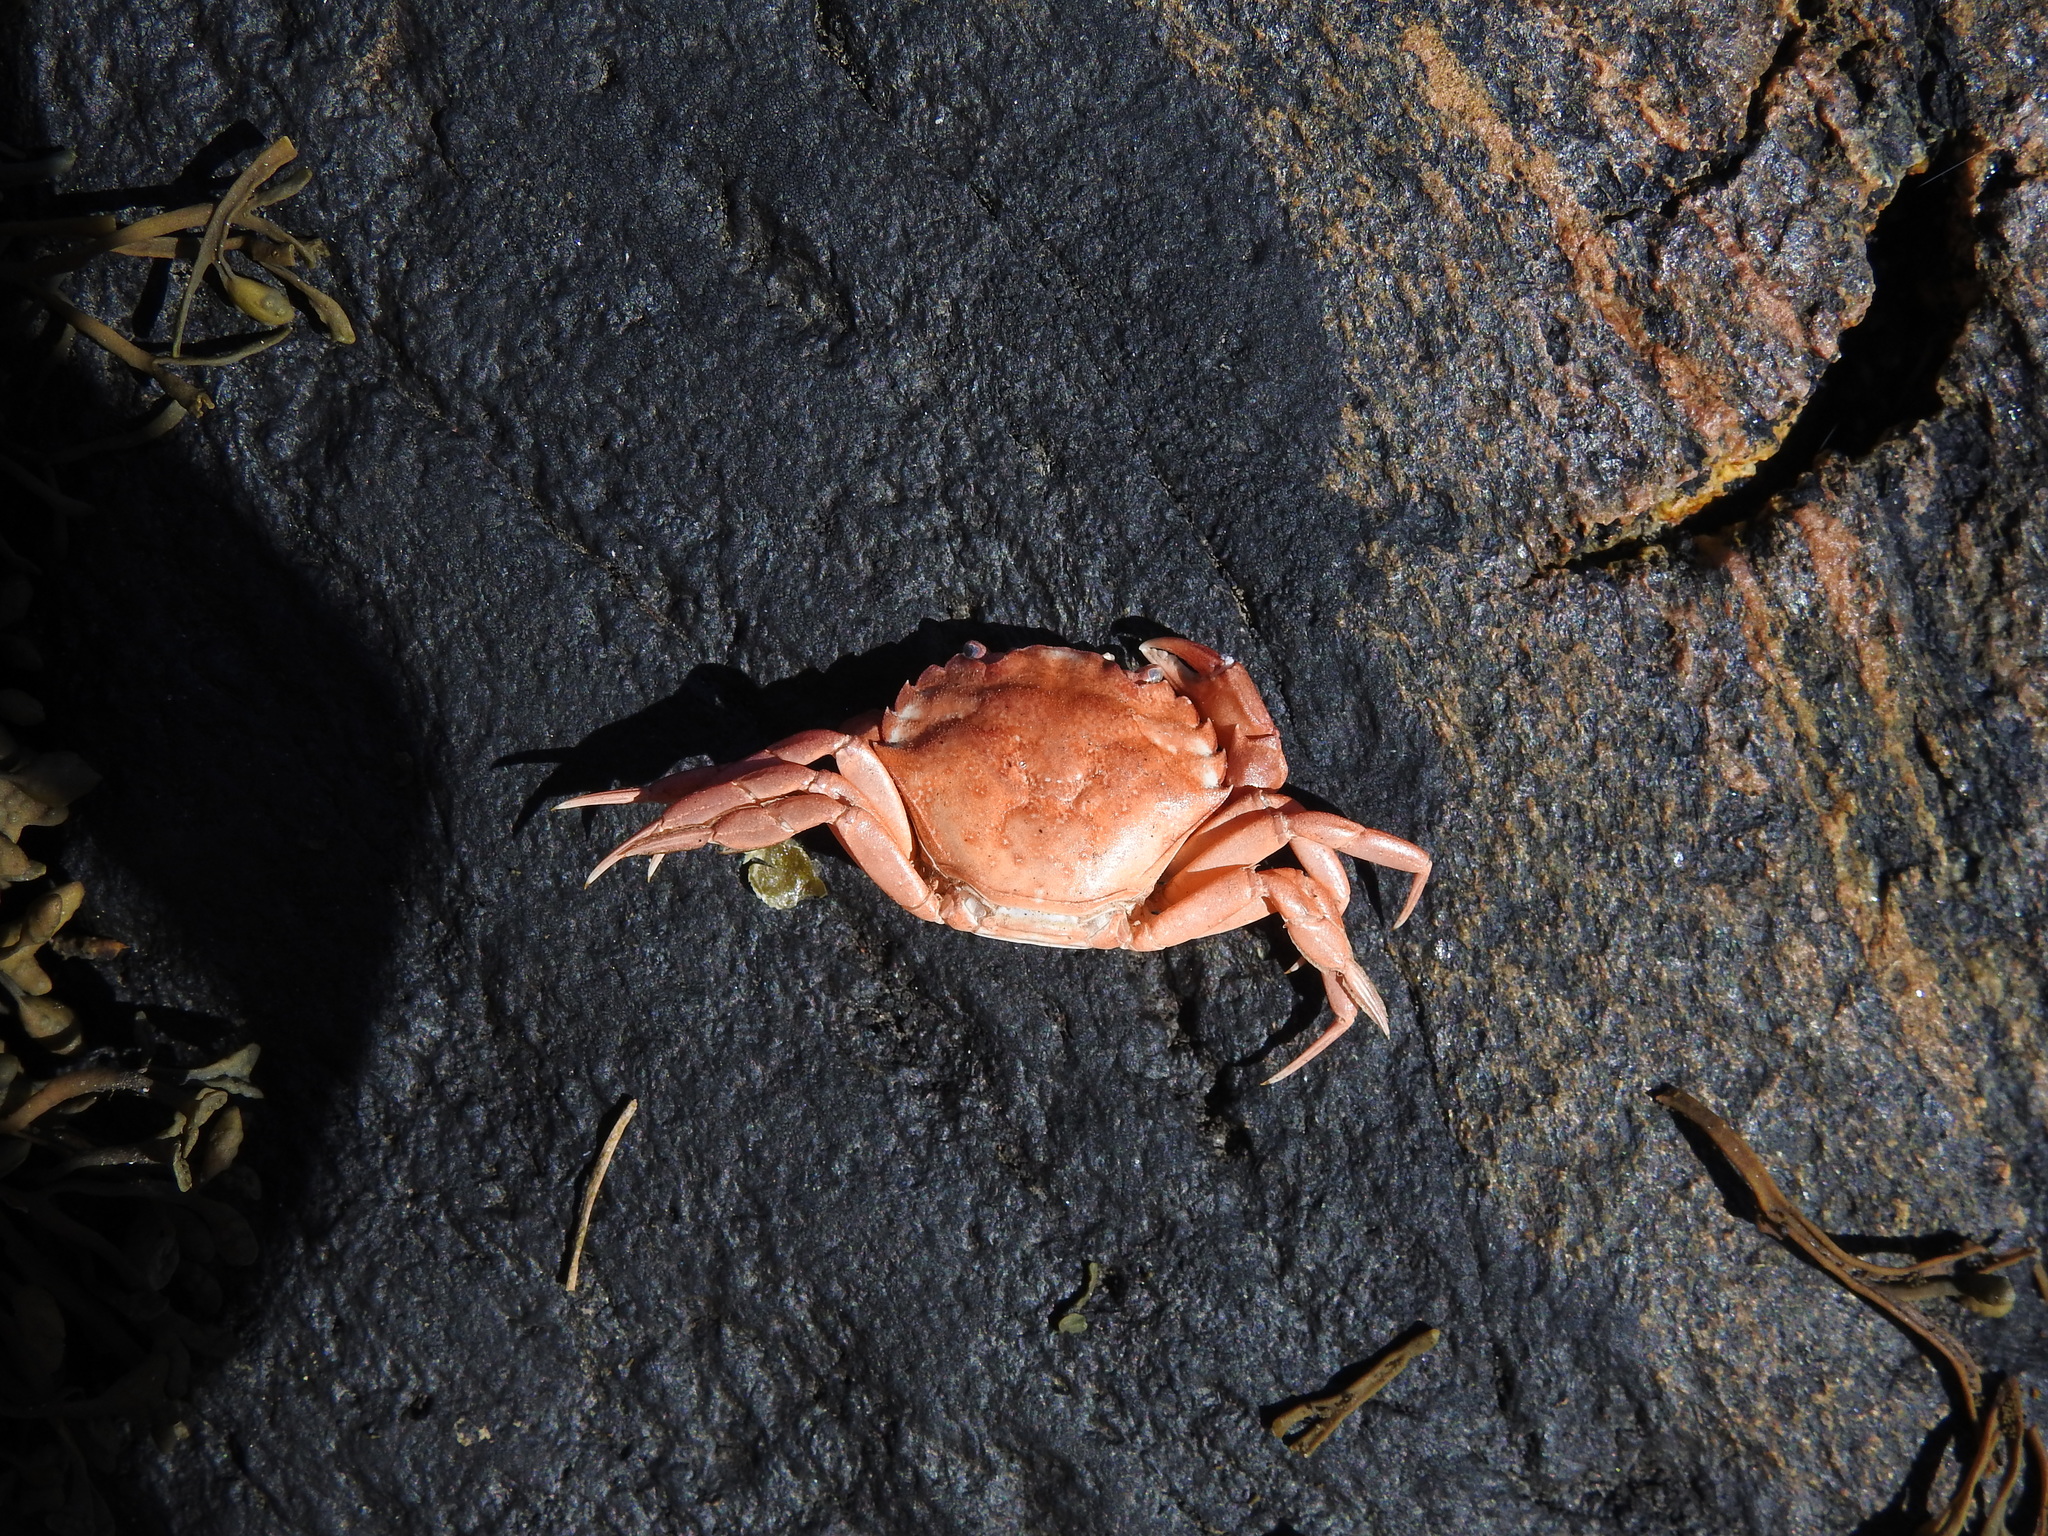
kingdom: Animalia
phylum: Arthropoda
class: Malacostraca
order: Decapoda
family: Carcinidae
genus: Carcinus
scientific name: Carcinus maenas
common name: European green crab
